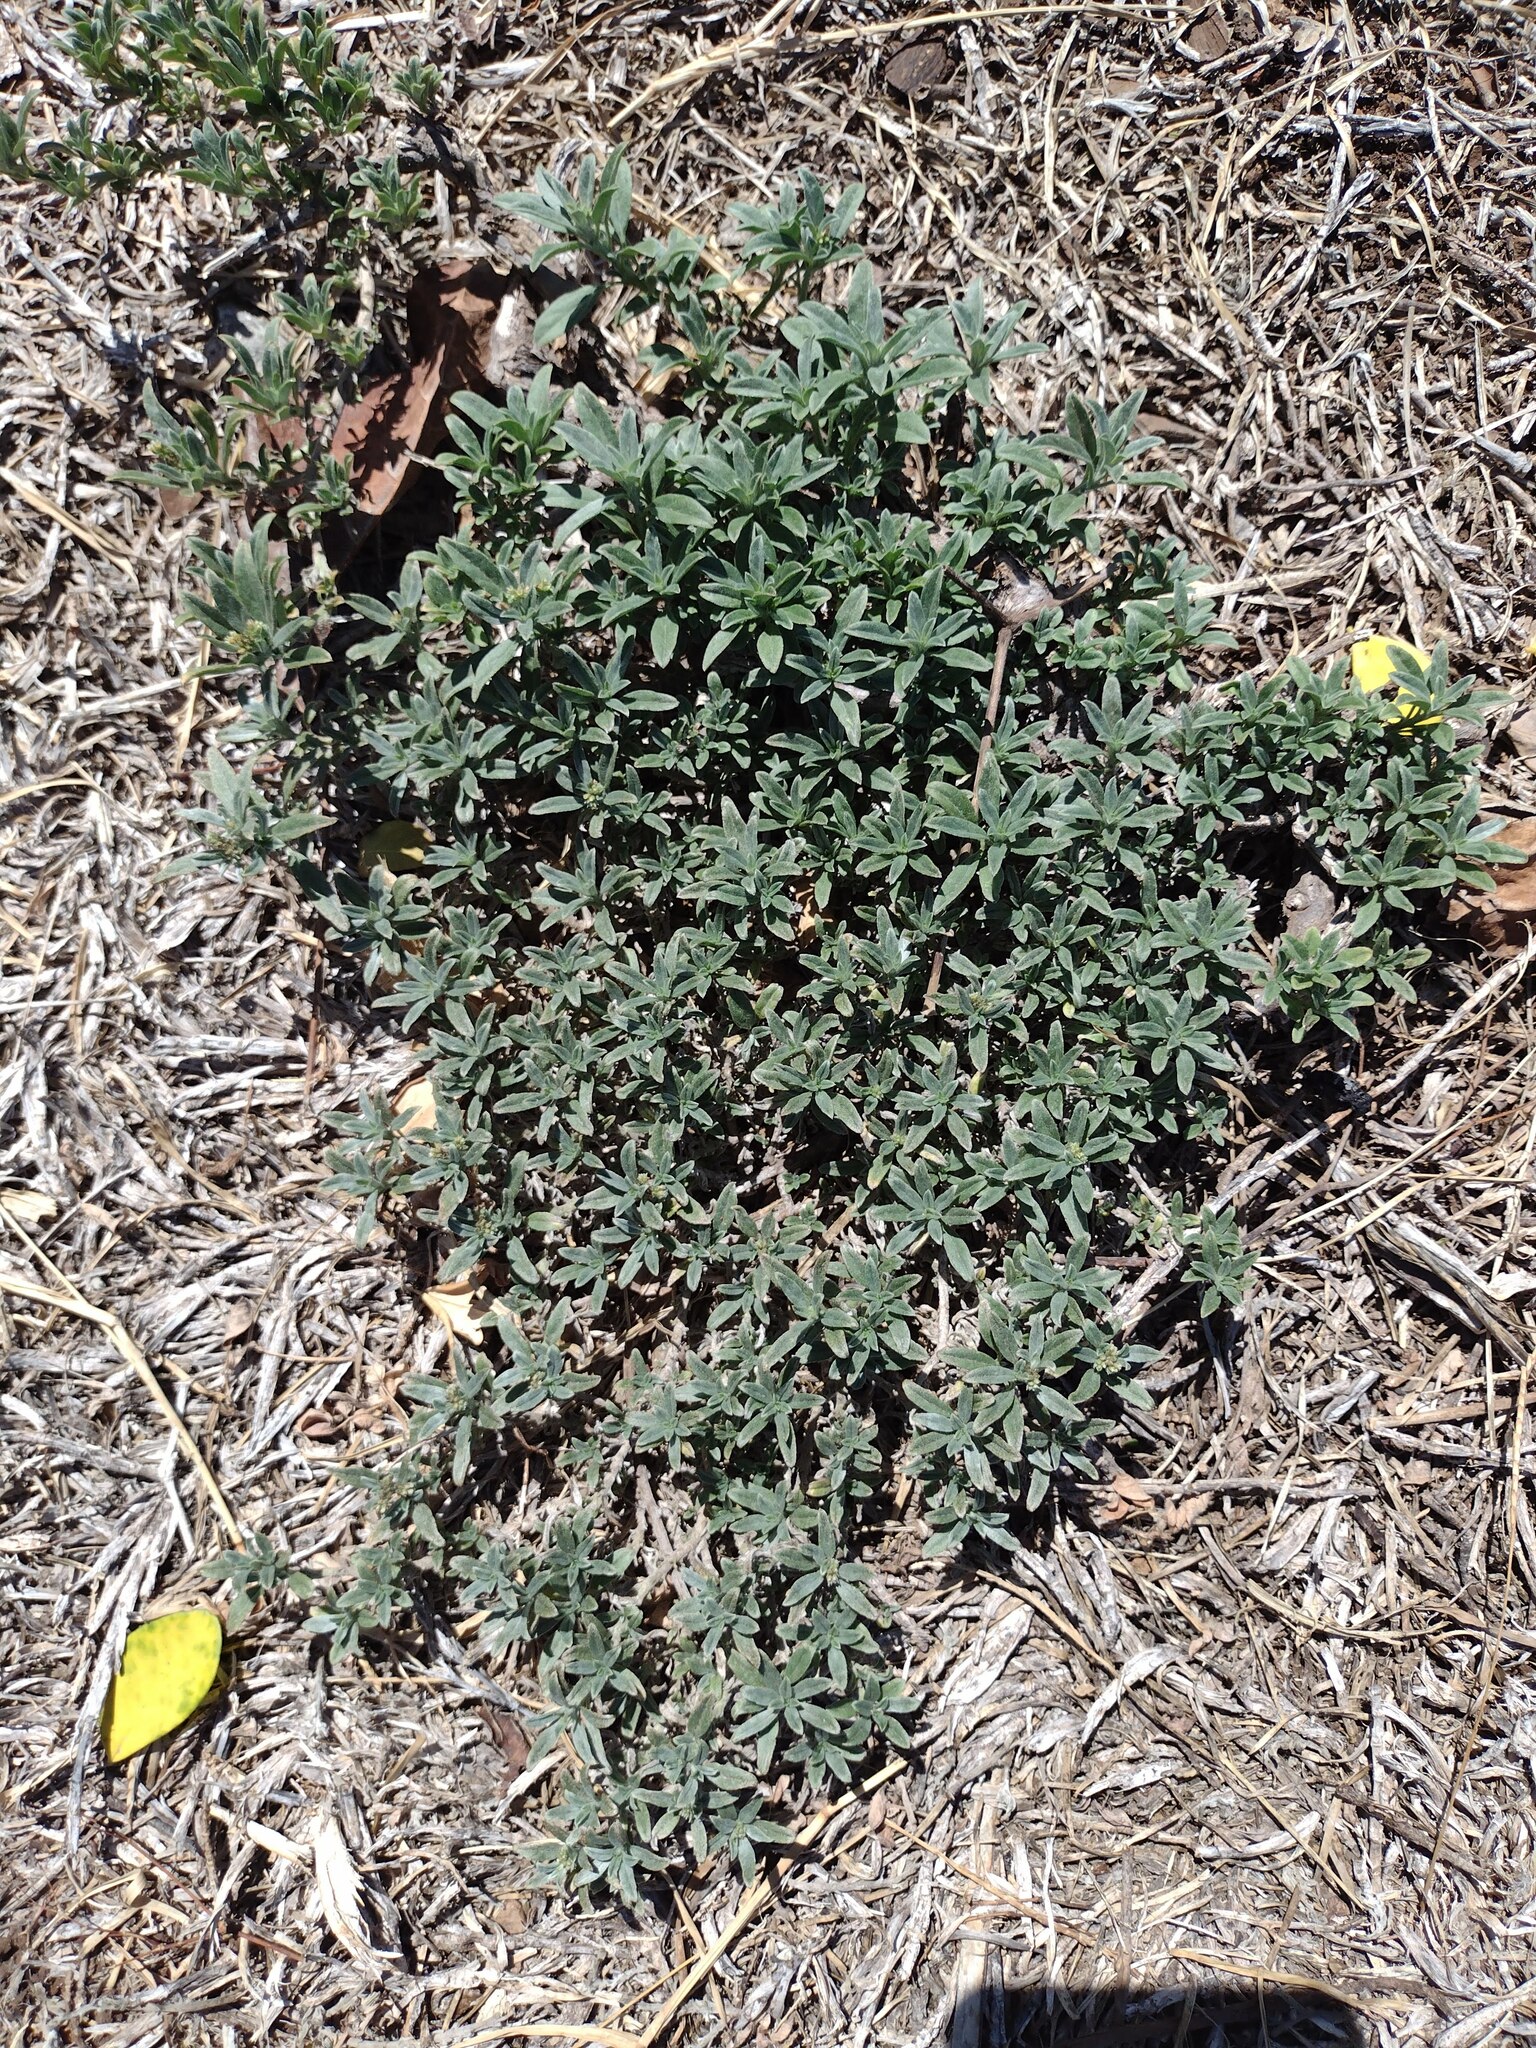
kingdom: Plantae
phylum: Tracheophyta
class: Magnoliopsida
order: Boraginales
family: Heliotropiaceae
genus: Euploca
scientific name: Euploca procumbens
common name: Fourspike heliotrope
